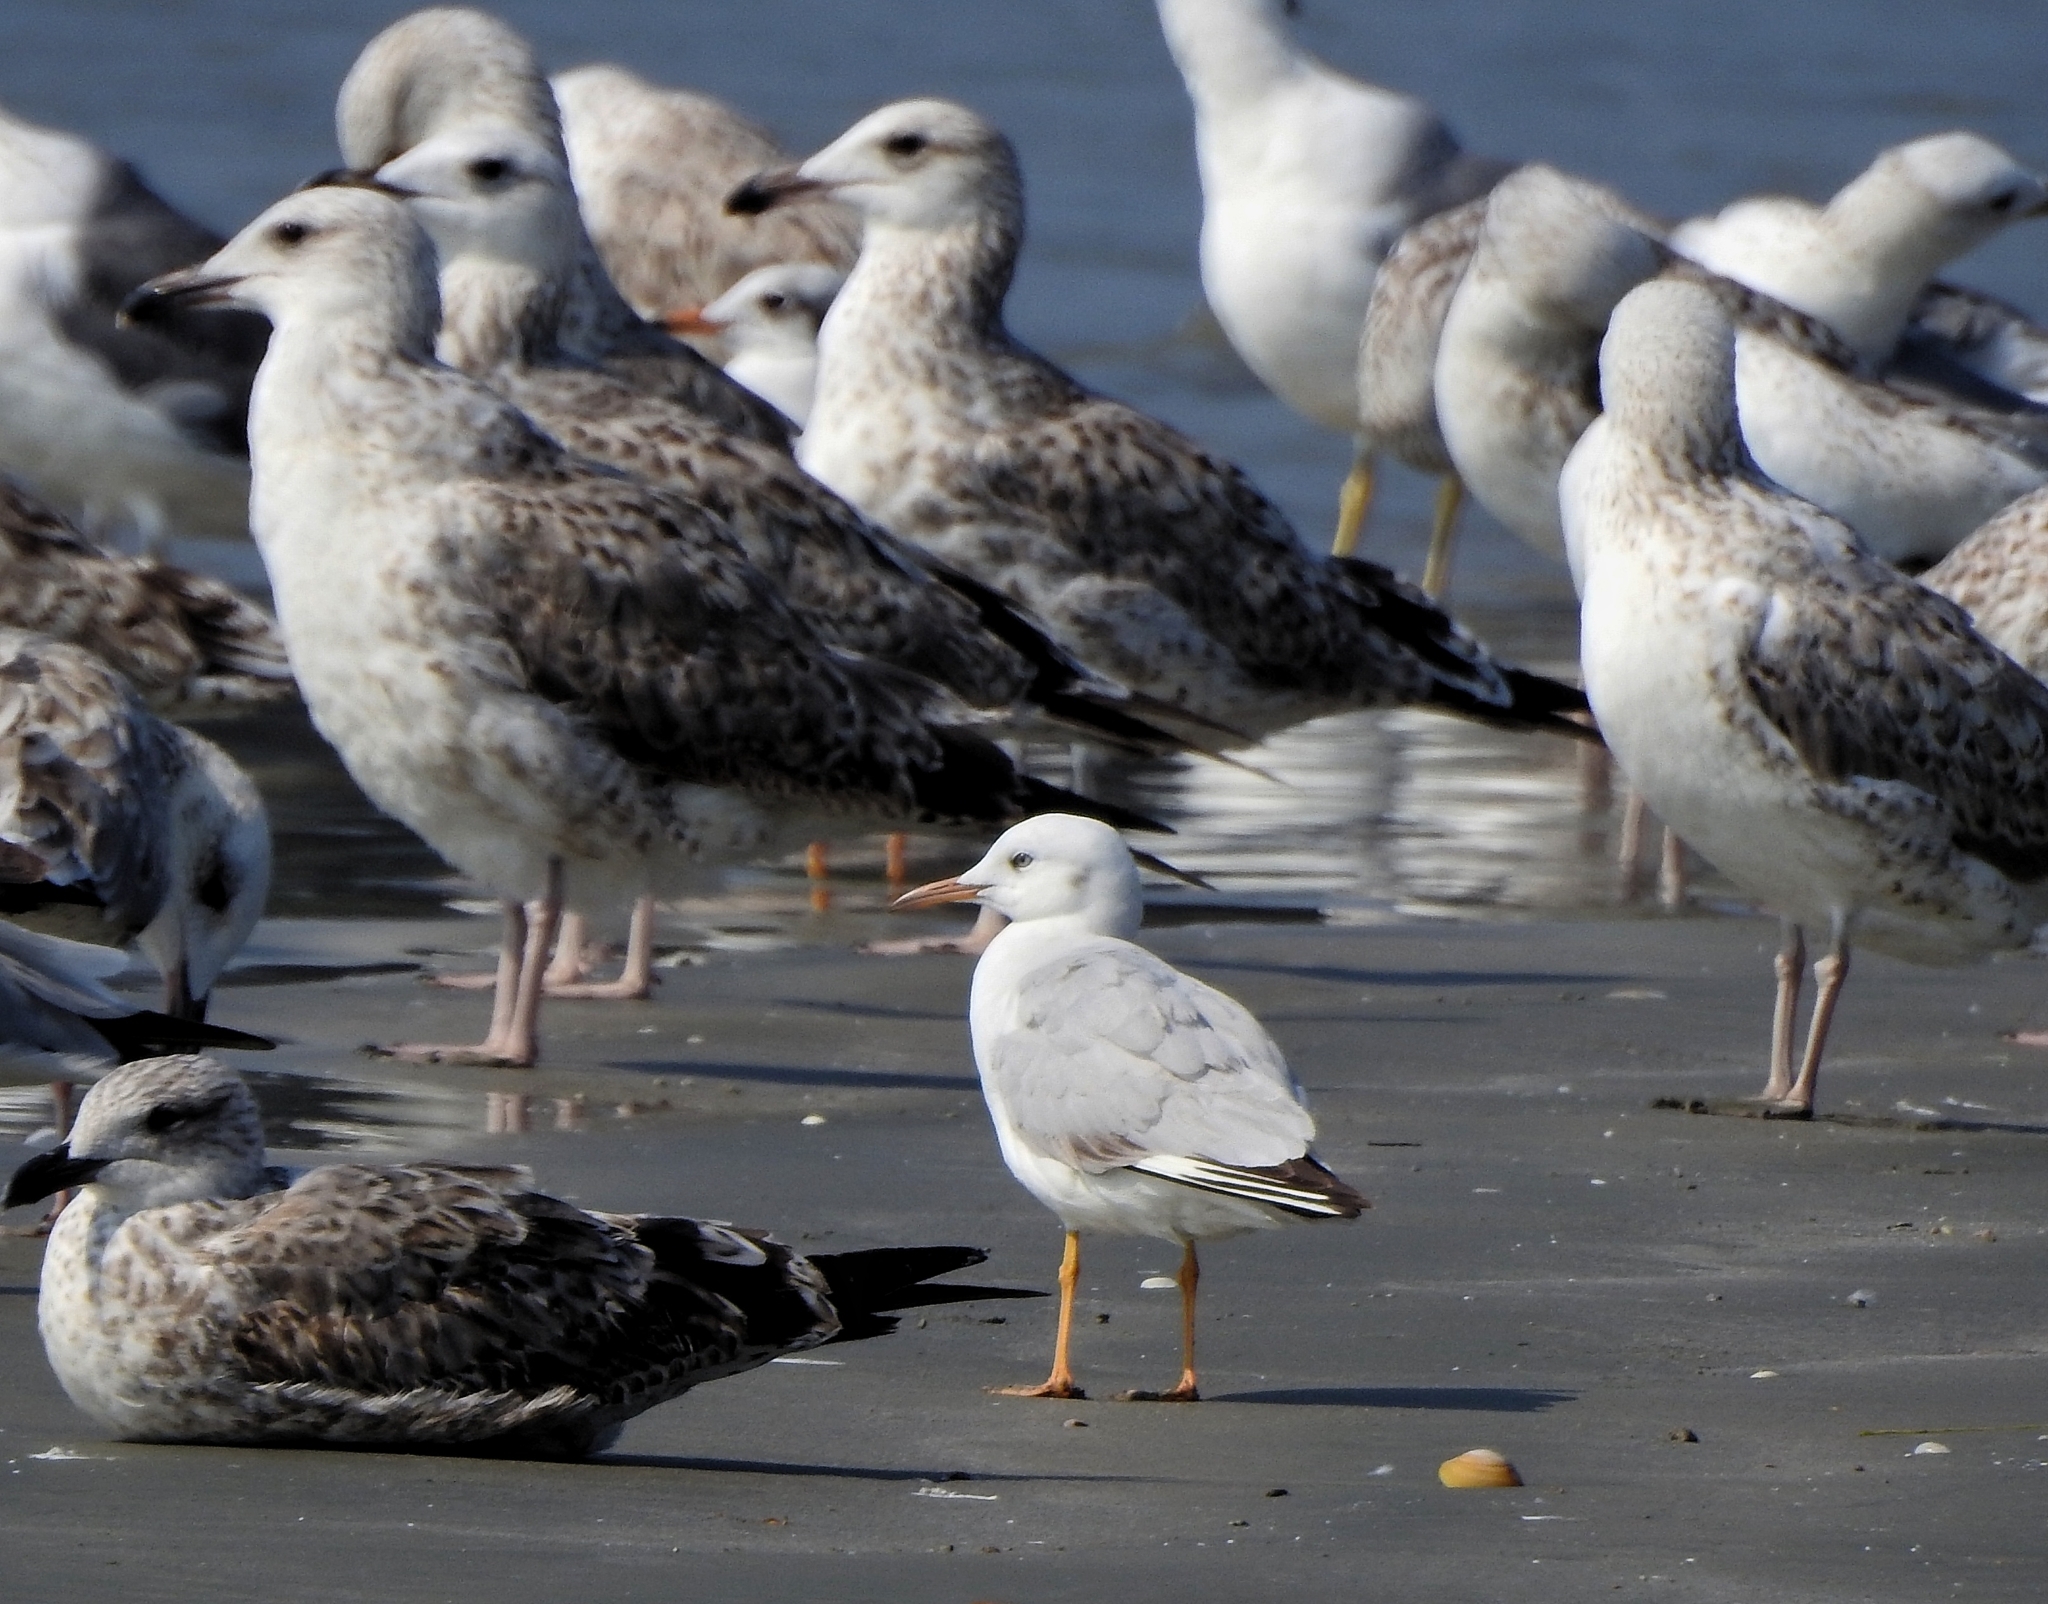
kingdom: Animalia
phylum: Chordata
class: Aves
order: Charadriiformes
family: Laridae
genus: Larus
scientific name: Larus fuscus
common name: Lesser black-backed gull
